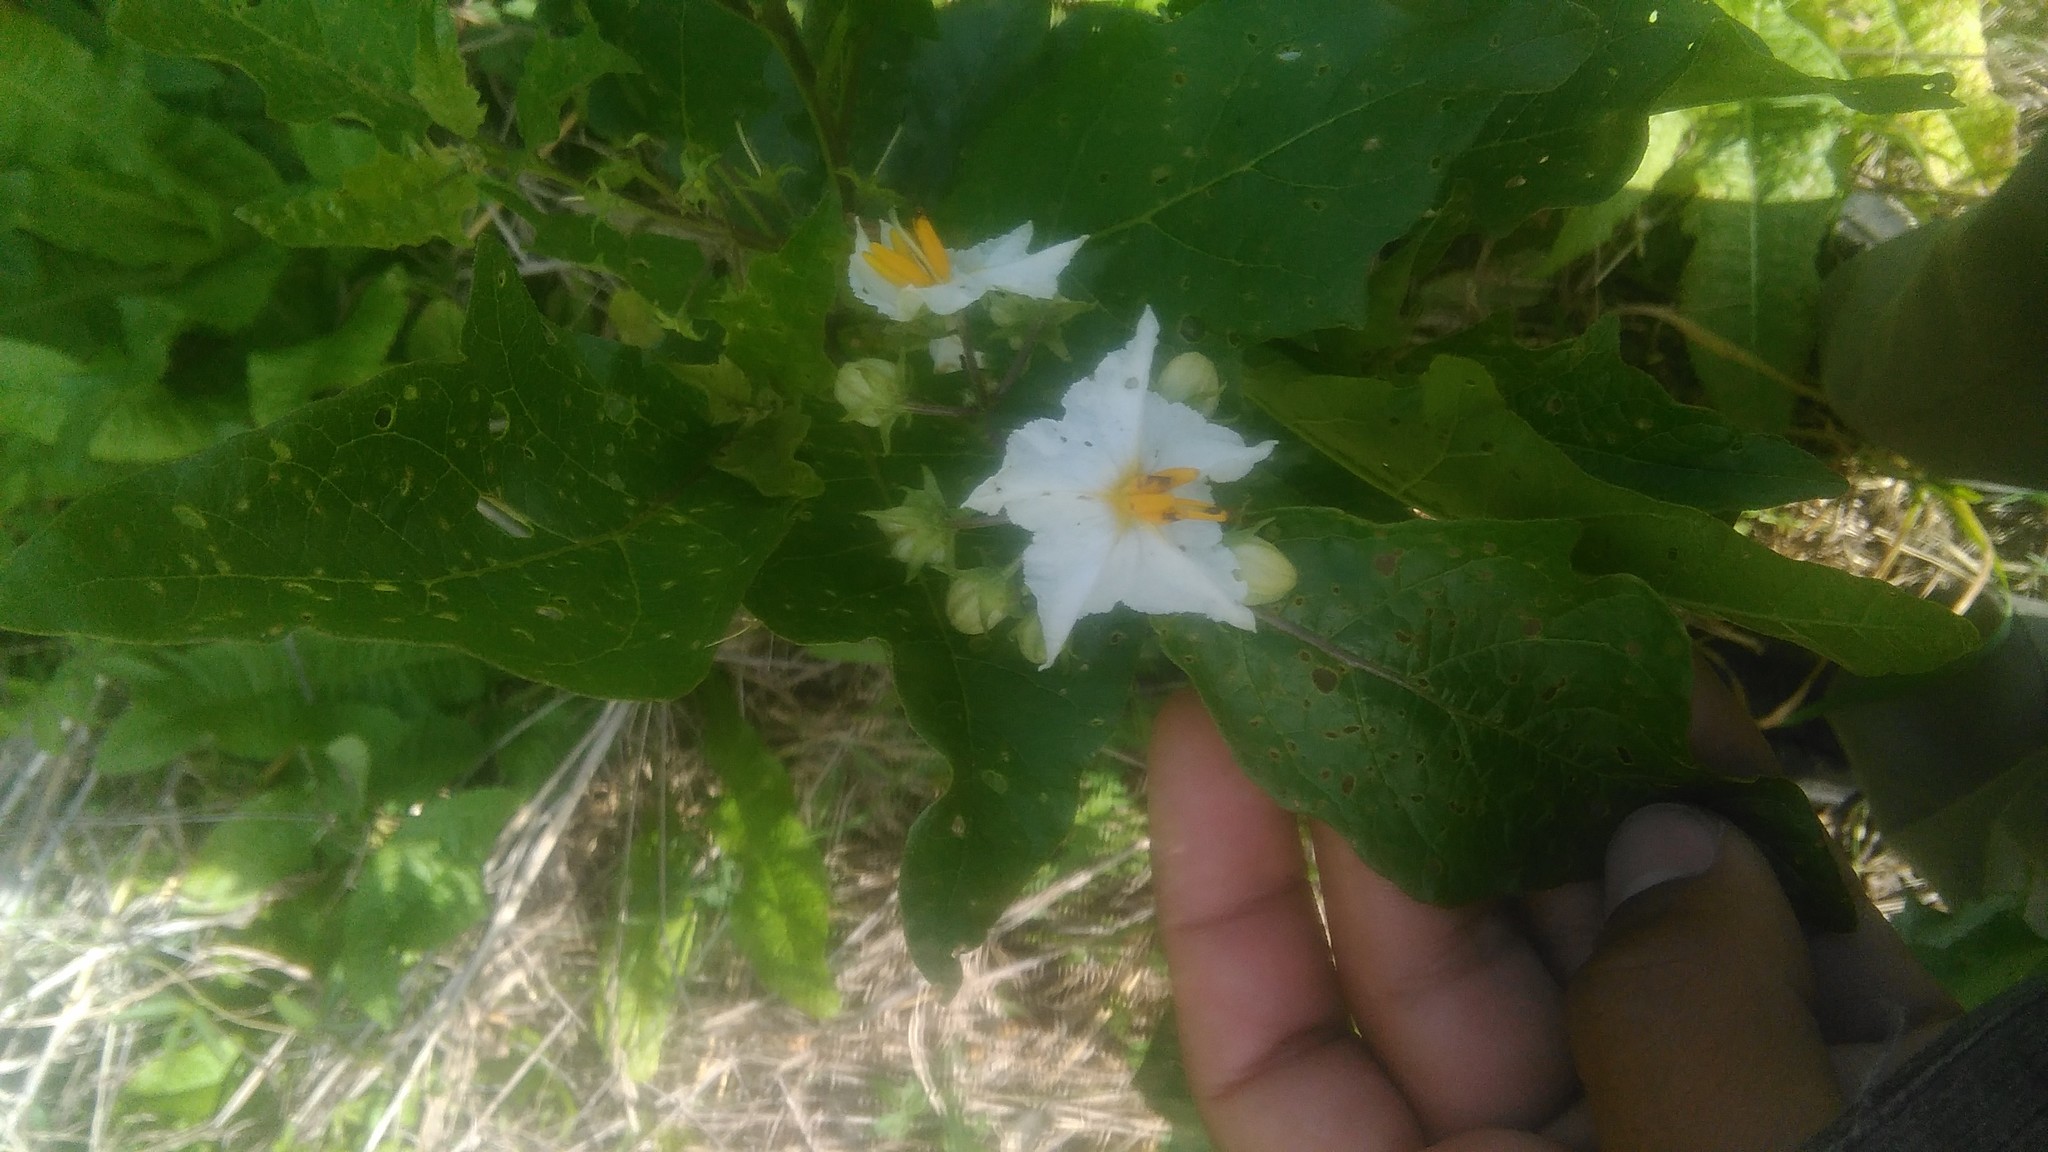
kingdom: Plantae
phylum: Tracheophyta
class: Magnoliopsida
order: Solanales
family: Solanaceae
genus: Solanum
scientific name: Solanum bonariense
